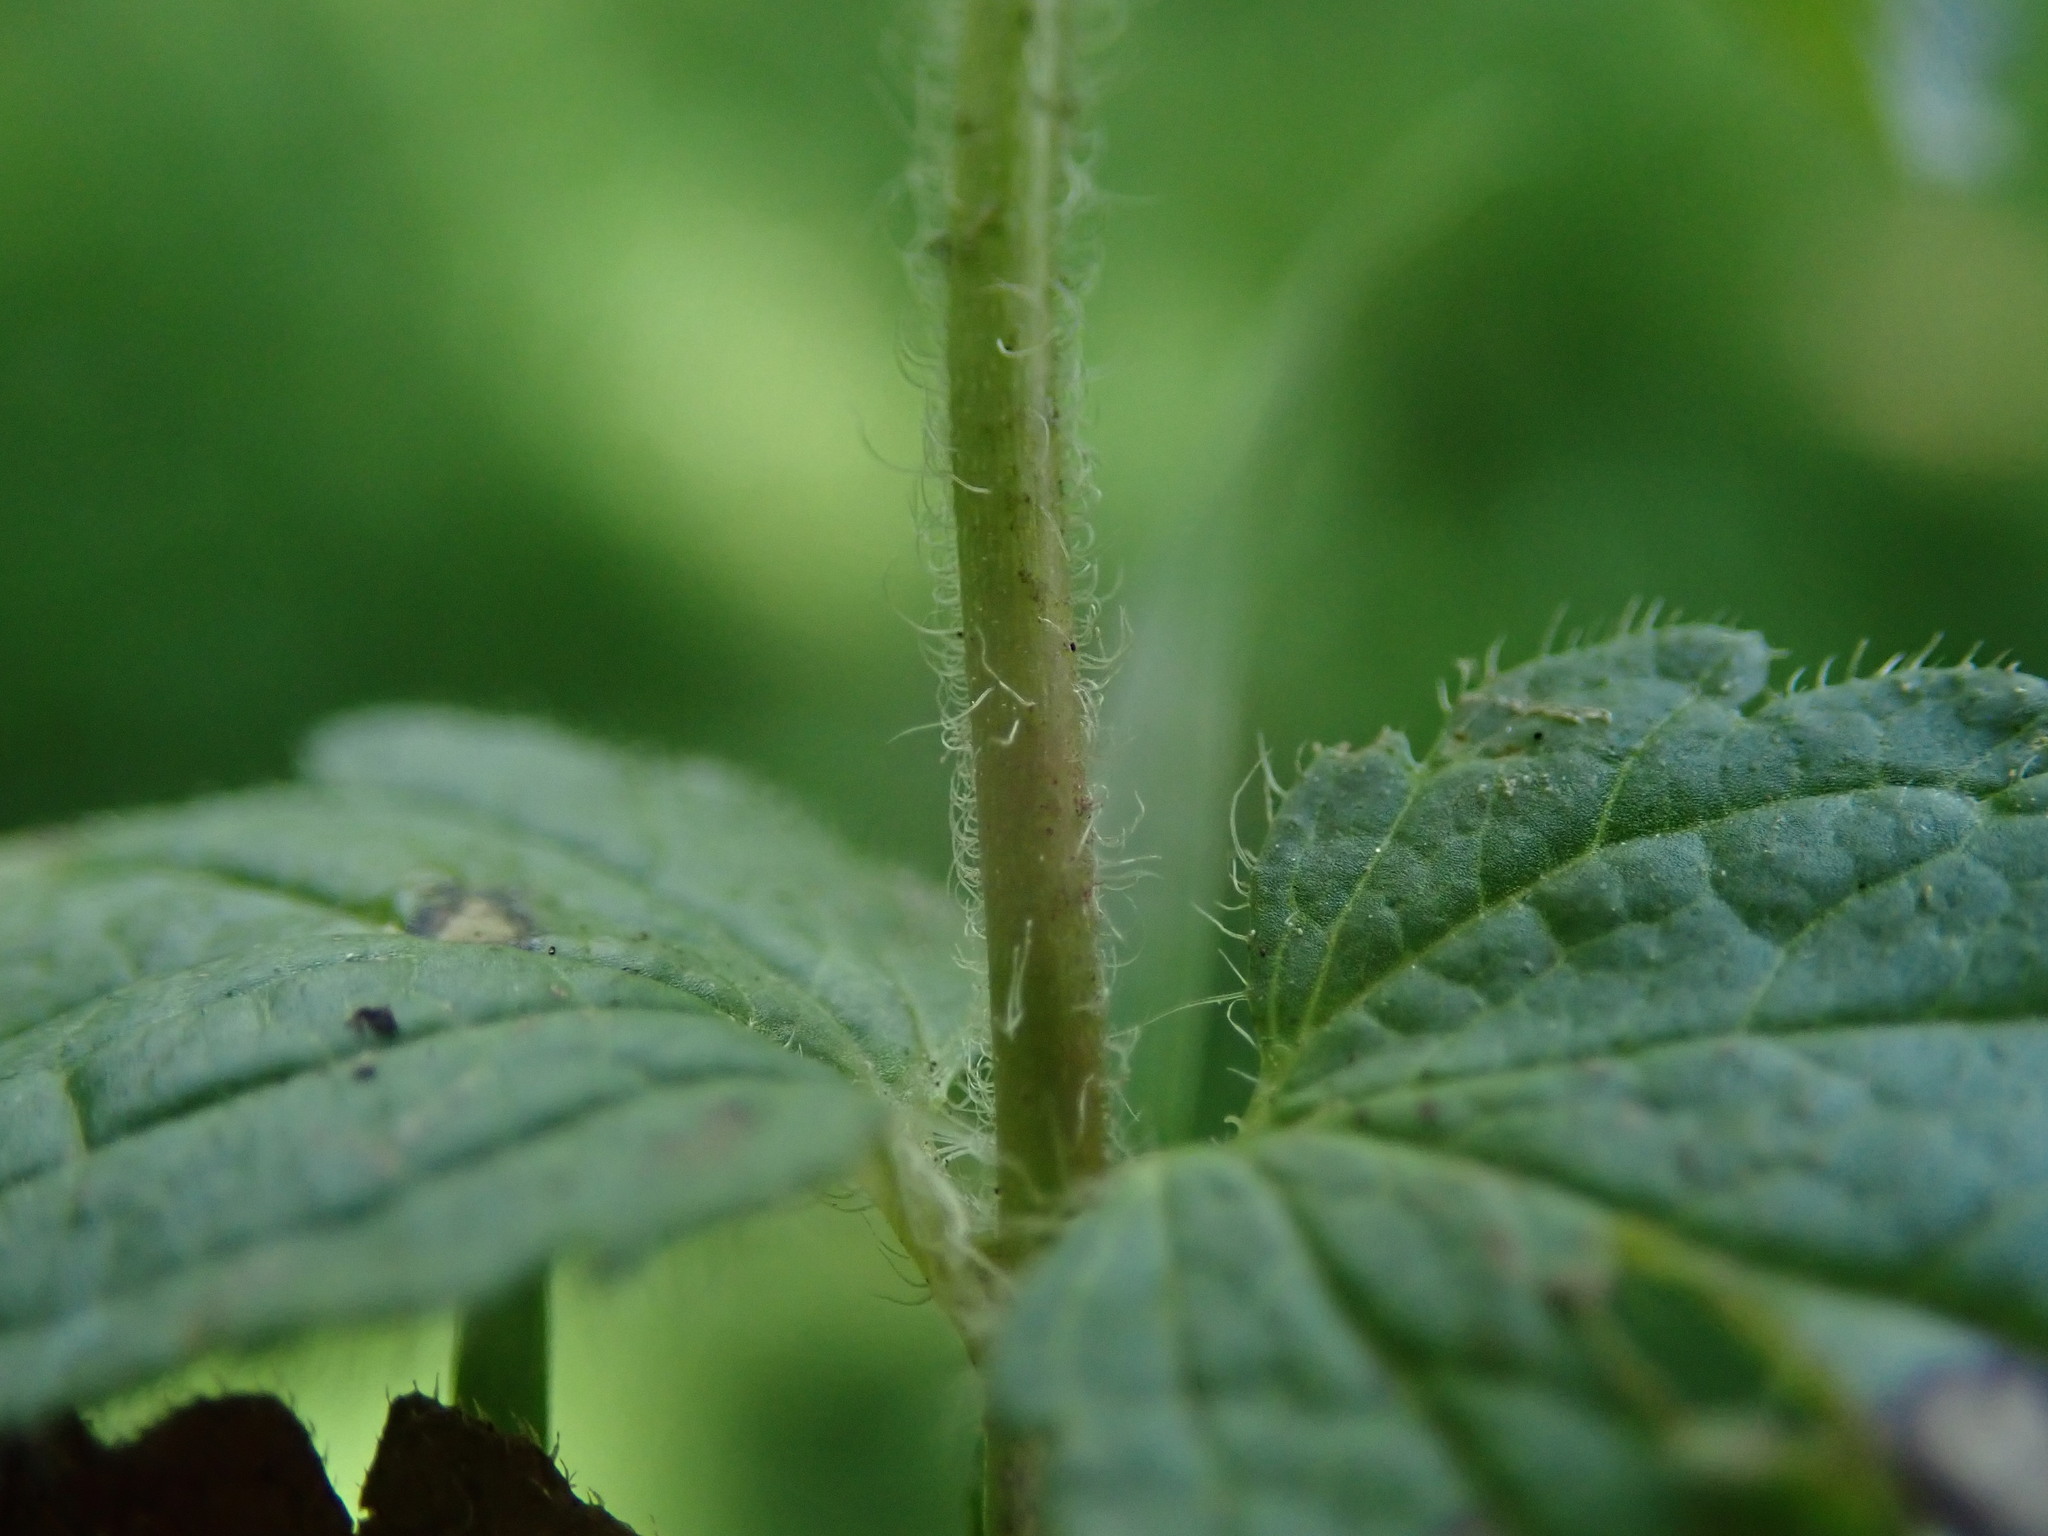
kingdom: Plantae
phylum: Tracheophyta
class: Magnoliopsida
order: Lamiales
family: Plantaginaceae
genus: Veronica
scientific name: Veronica chamaedrys
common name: Germander speedwell
